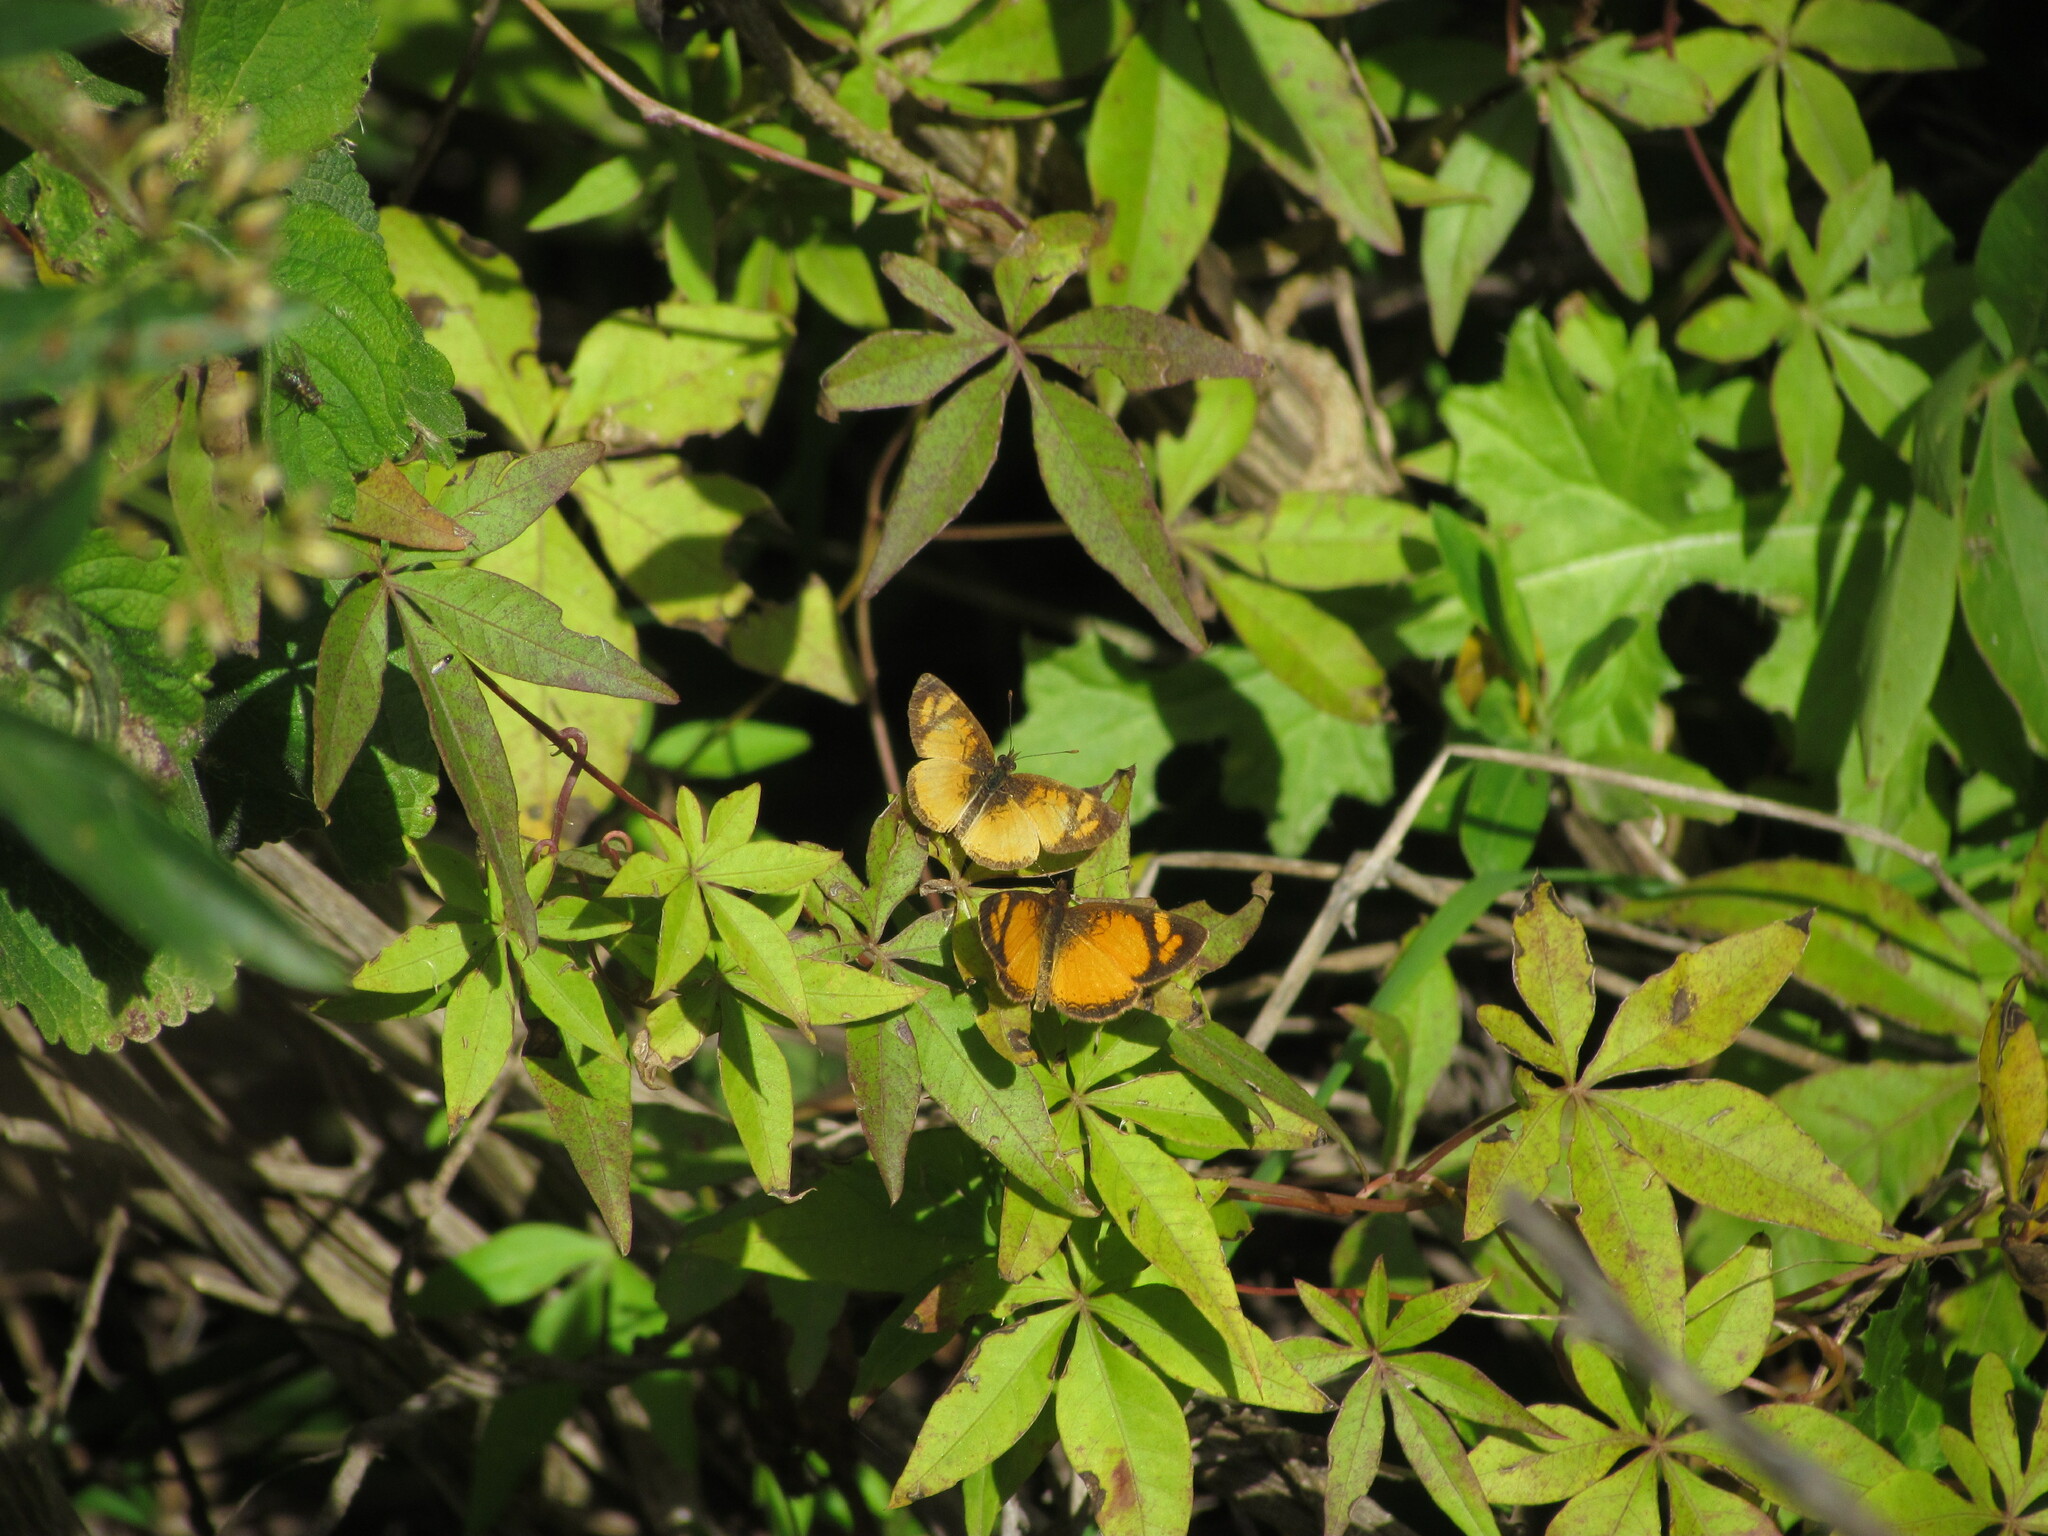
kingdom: Animalia
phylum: Arthropoda
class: Insecta
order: Lepidoptera
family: Nymphalidae
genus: Tegosa
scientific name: Tegosa claudina
